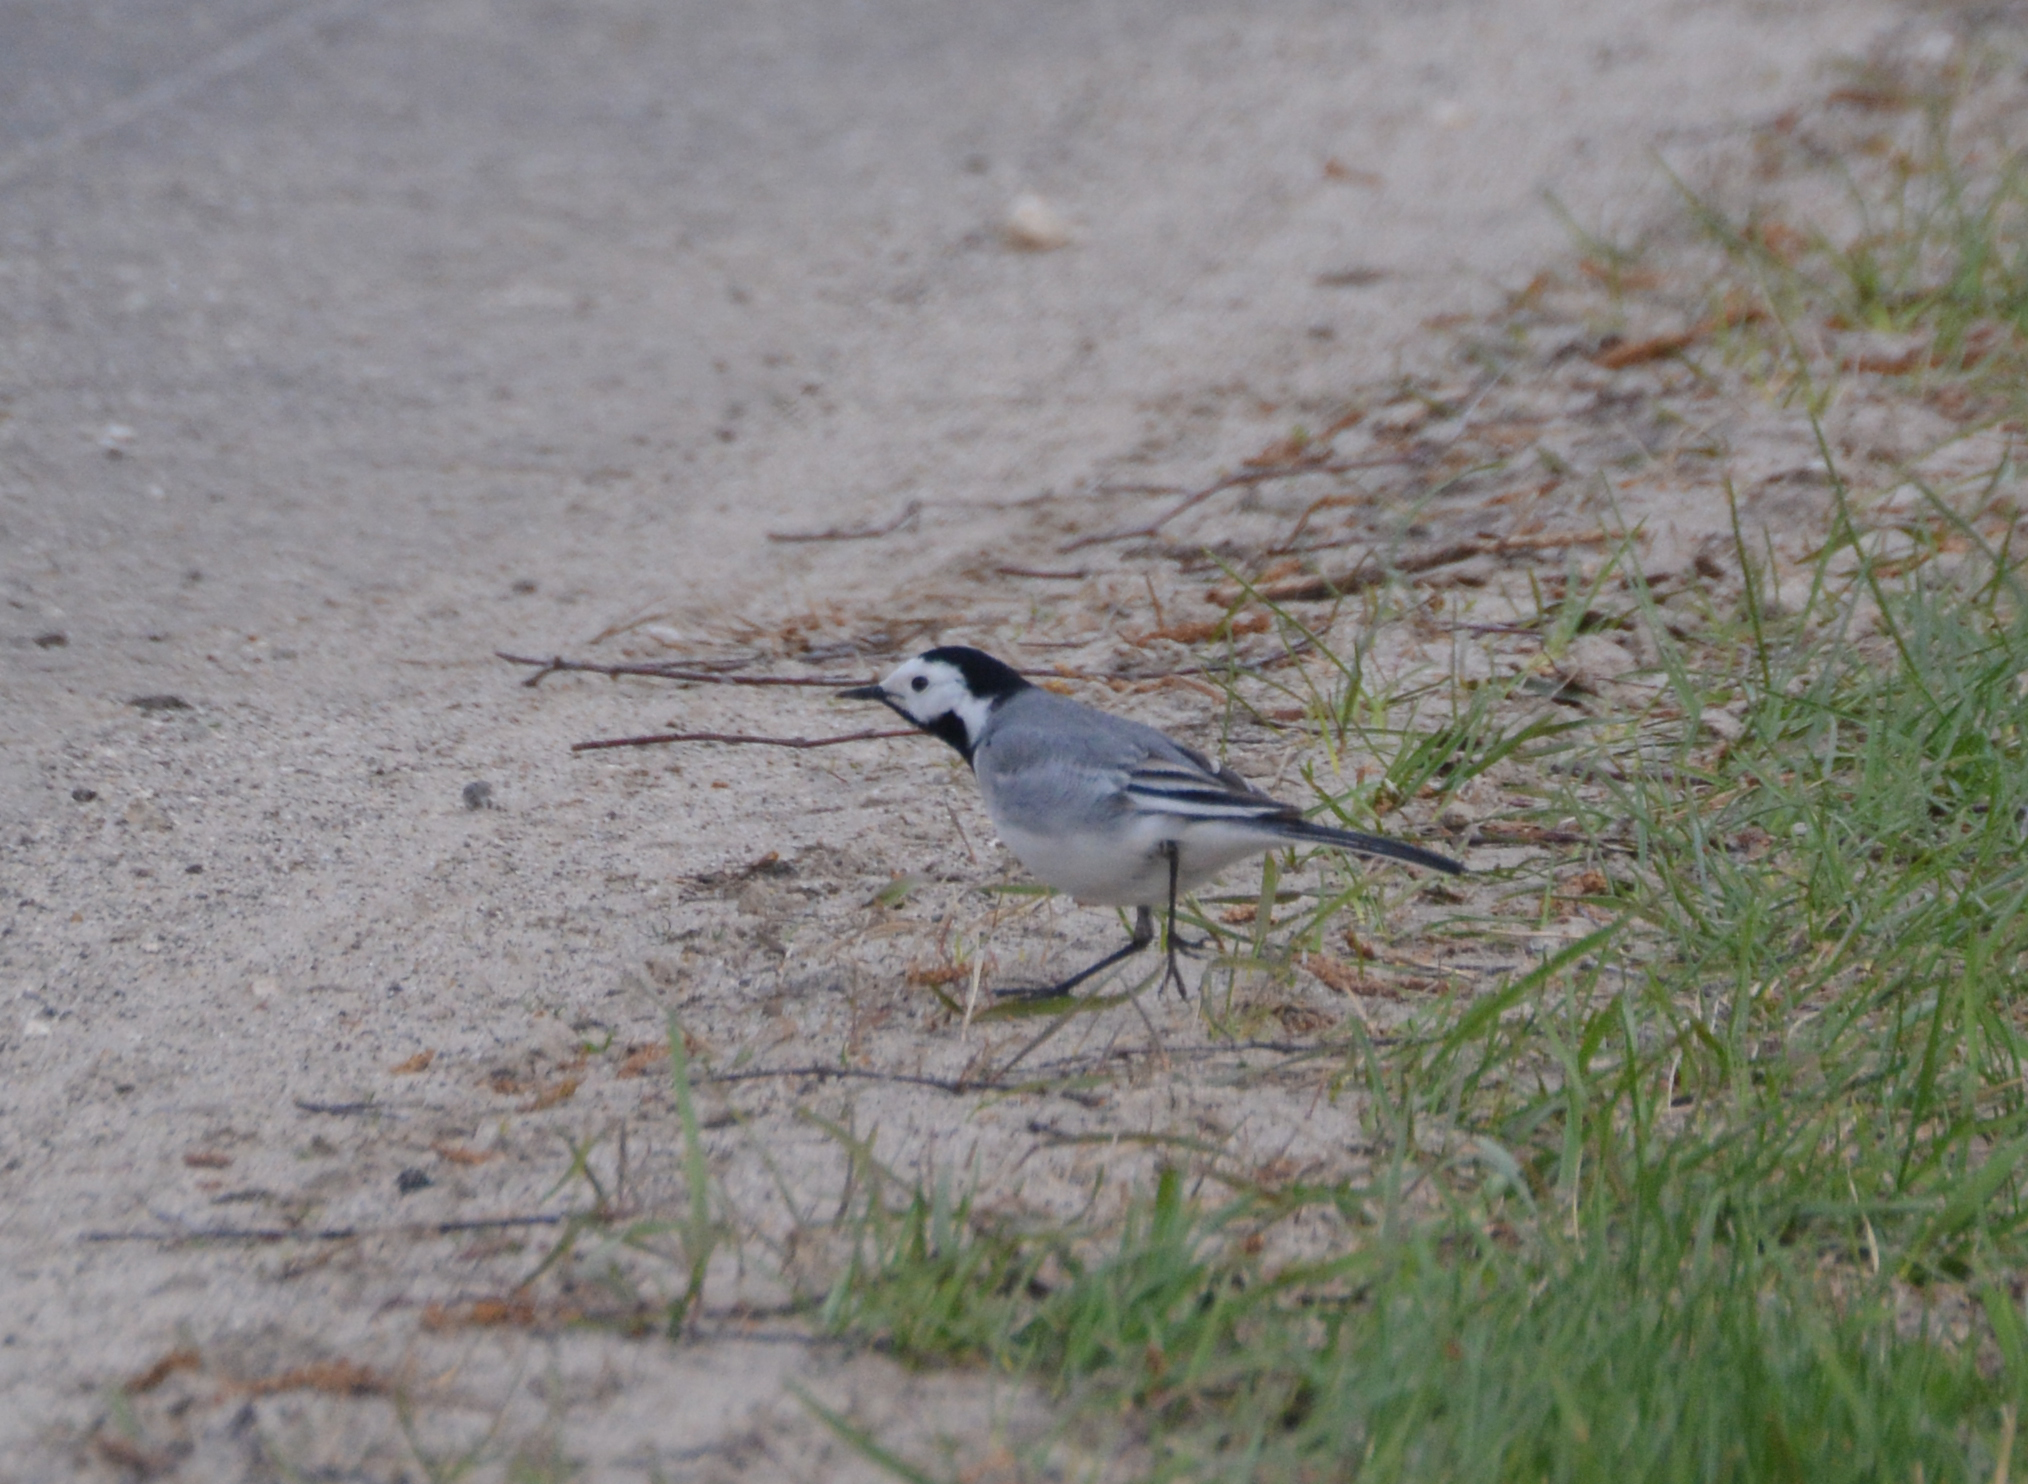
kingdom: Animalia
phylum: Chordata
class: Aves
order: Passeriformes
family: Motacillidae
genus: Motacilla
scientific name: Motacilla alba
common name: White wagtail
